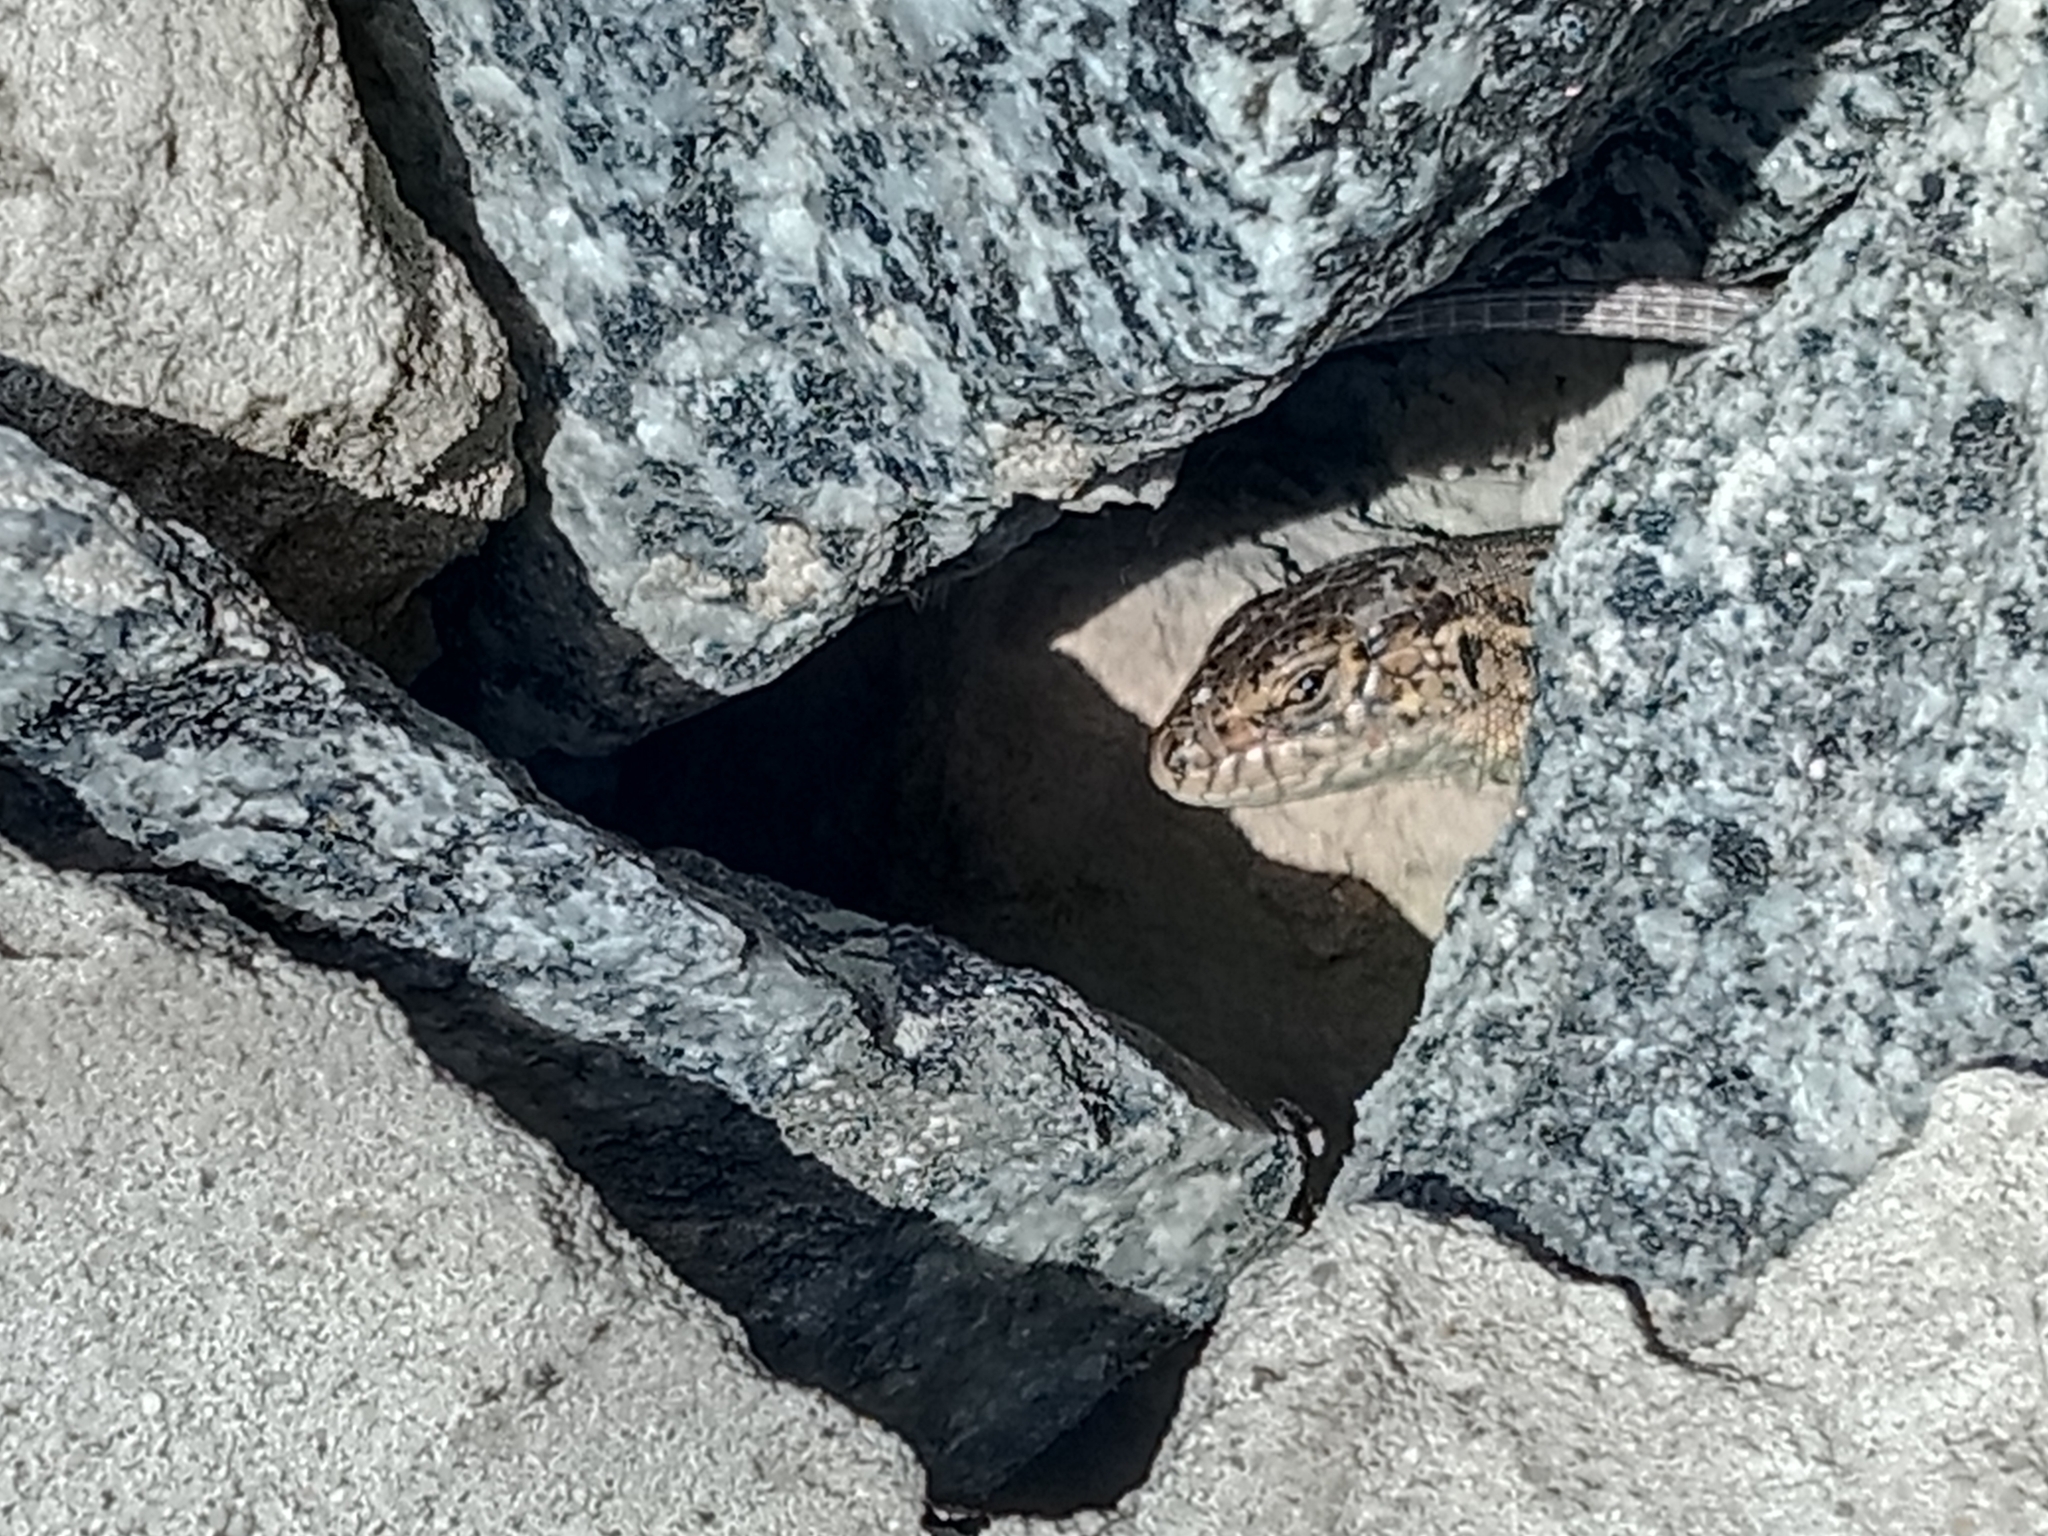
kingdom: Animalia
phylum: Chordata
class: Squamata
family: Lacertidae
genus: Lacerta
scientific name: Lacerta agilis
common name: Sand lizard
